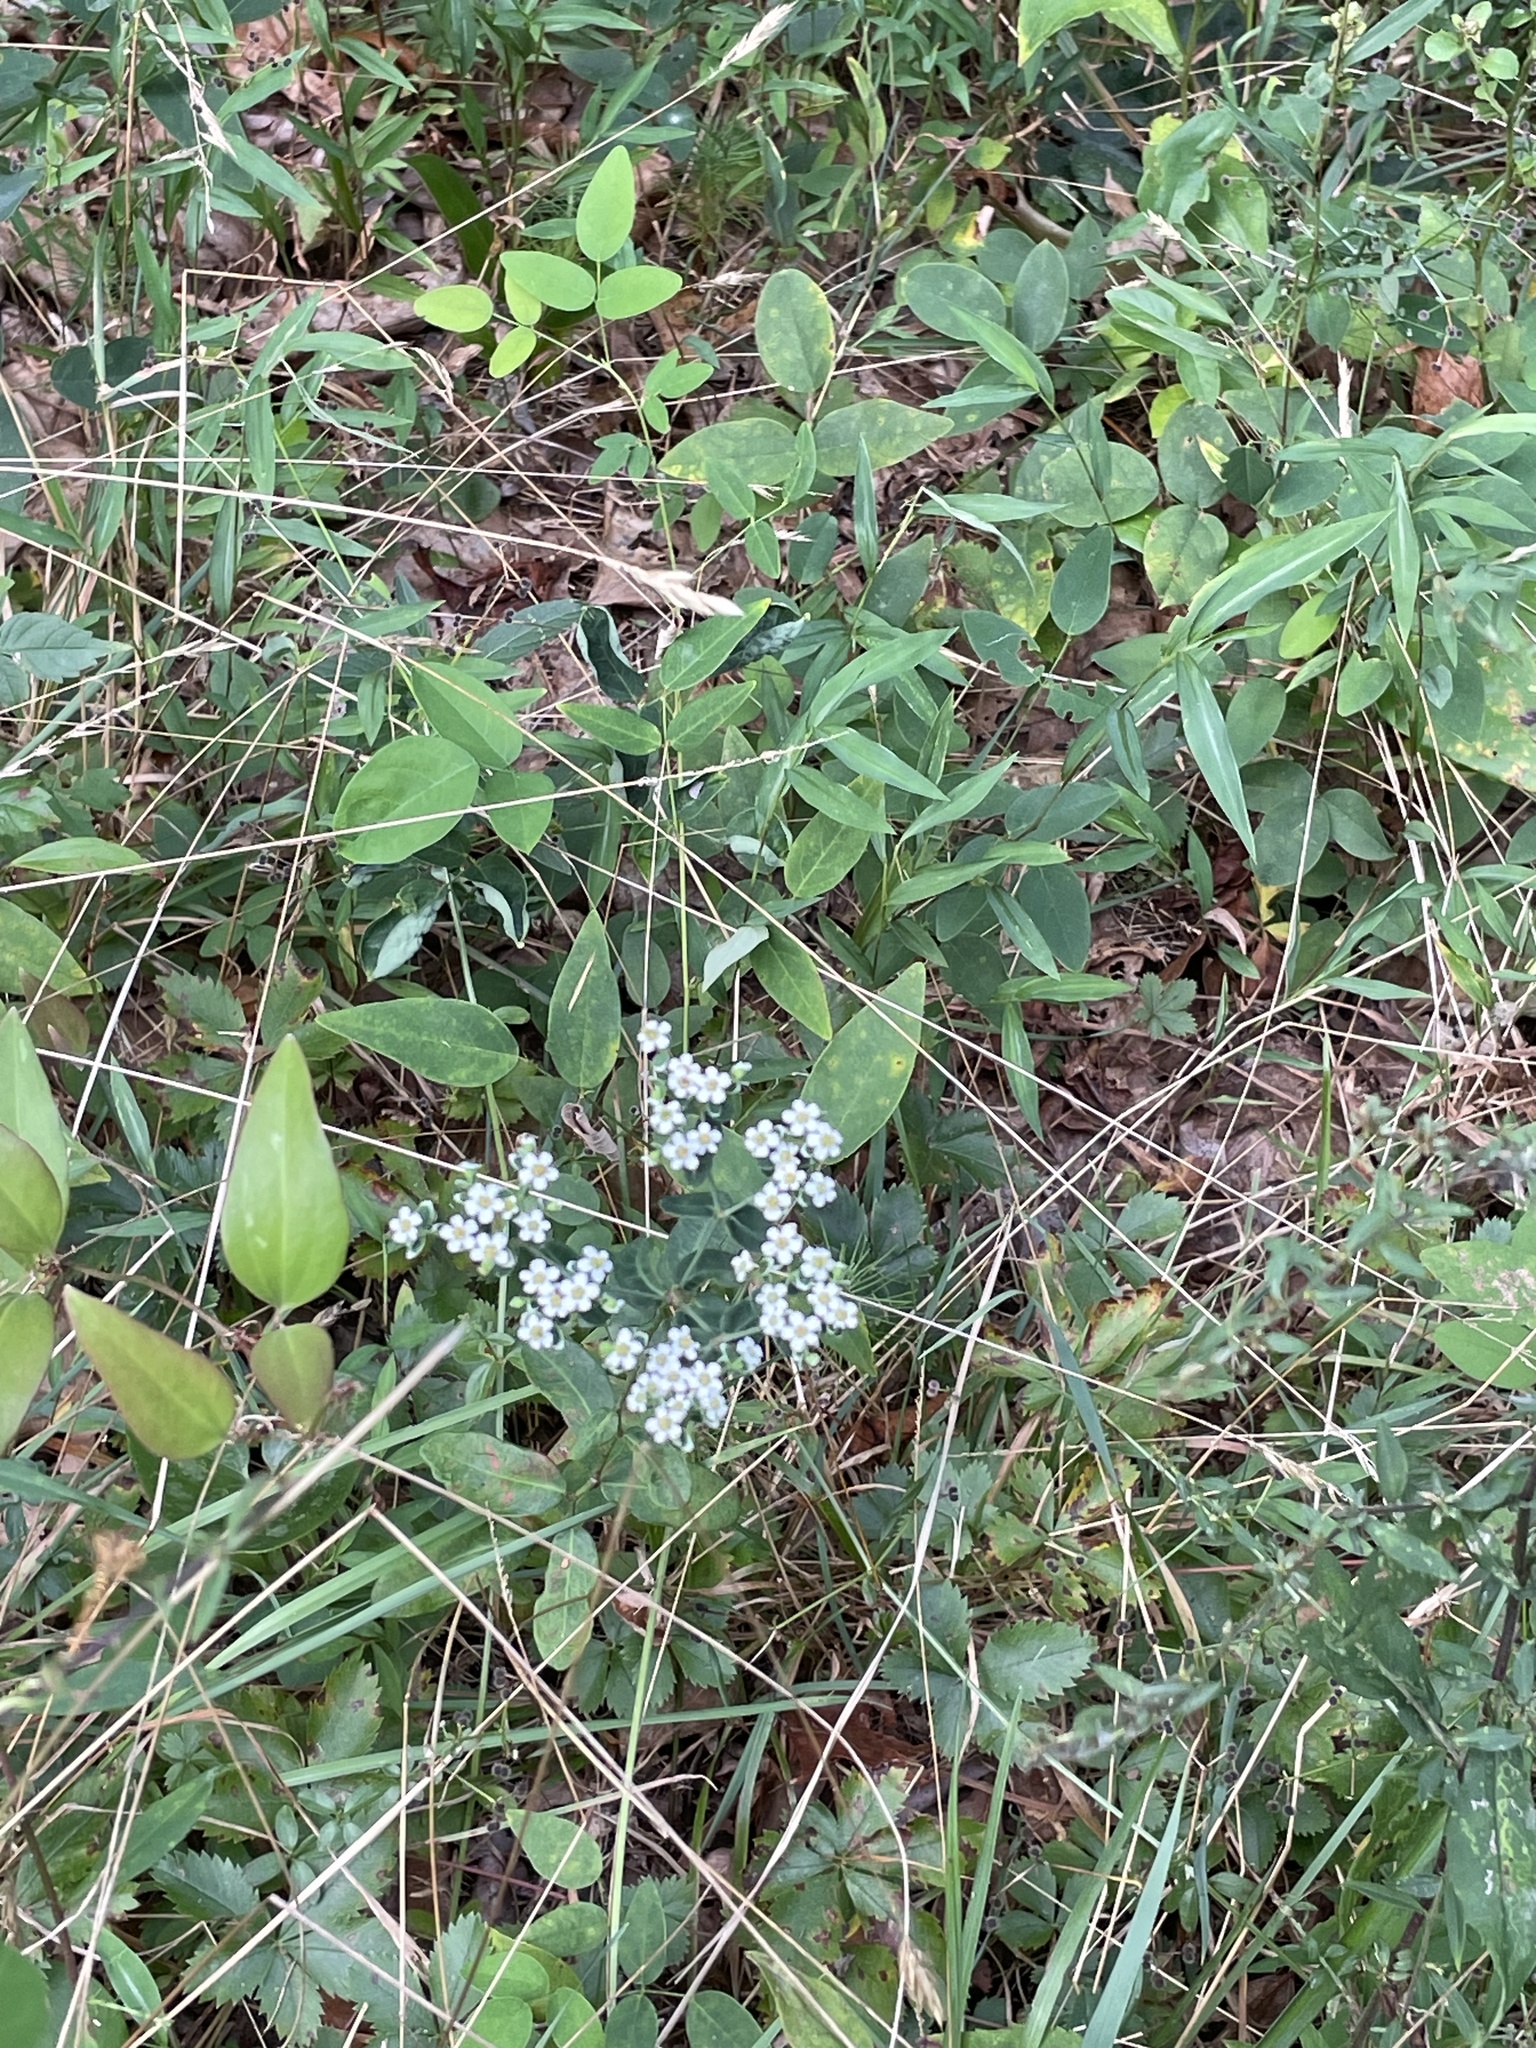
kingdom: Plantae
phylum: Tracheophyta
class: Magnoliopsida
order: Malpighiales
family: Euphorbiaceae
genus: Euphorbia
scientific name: Euphorbia corollata
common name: Flowering spurge
